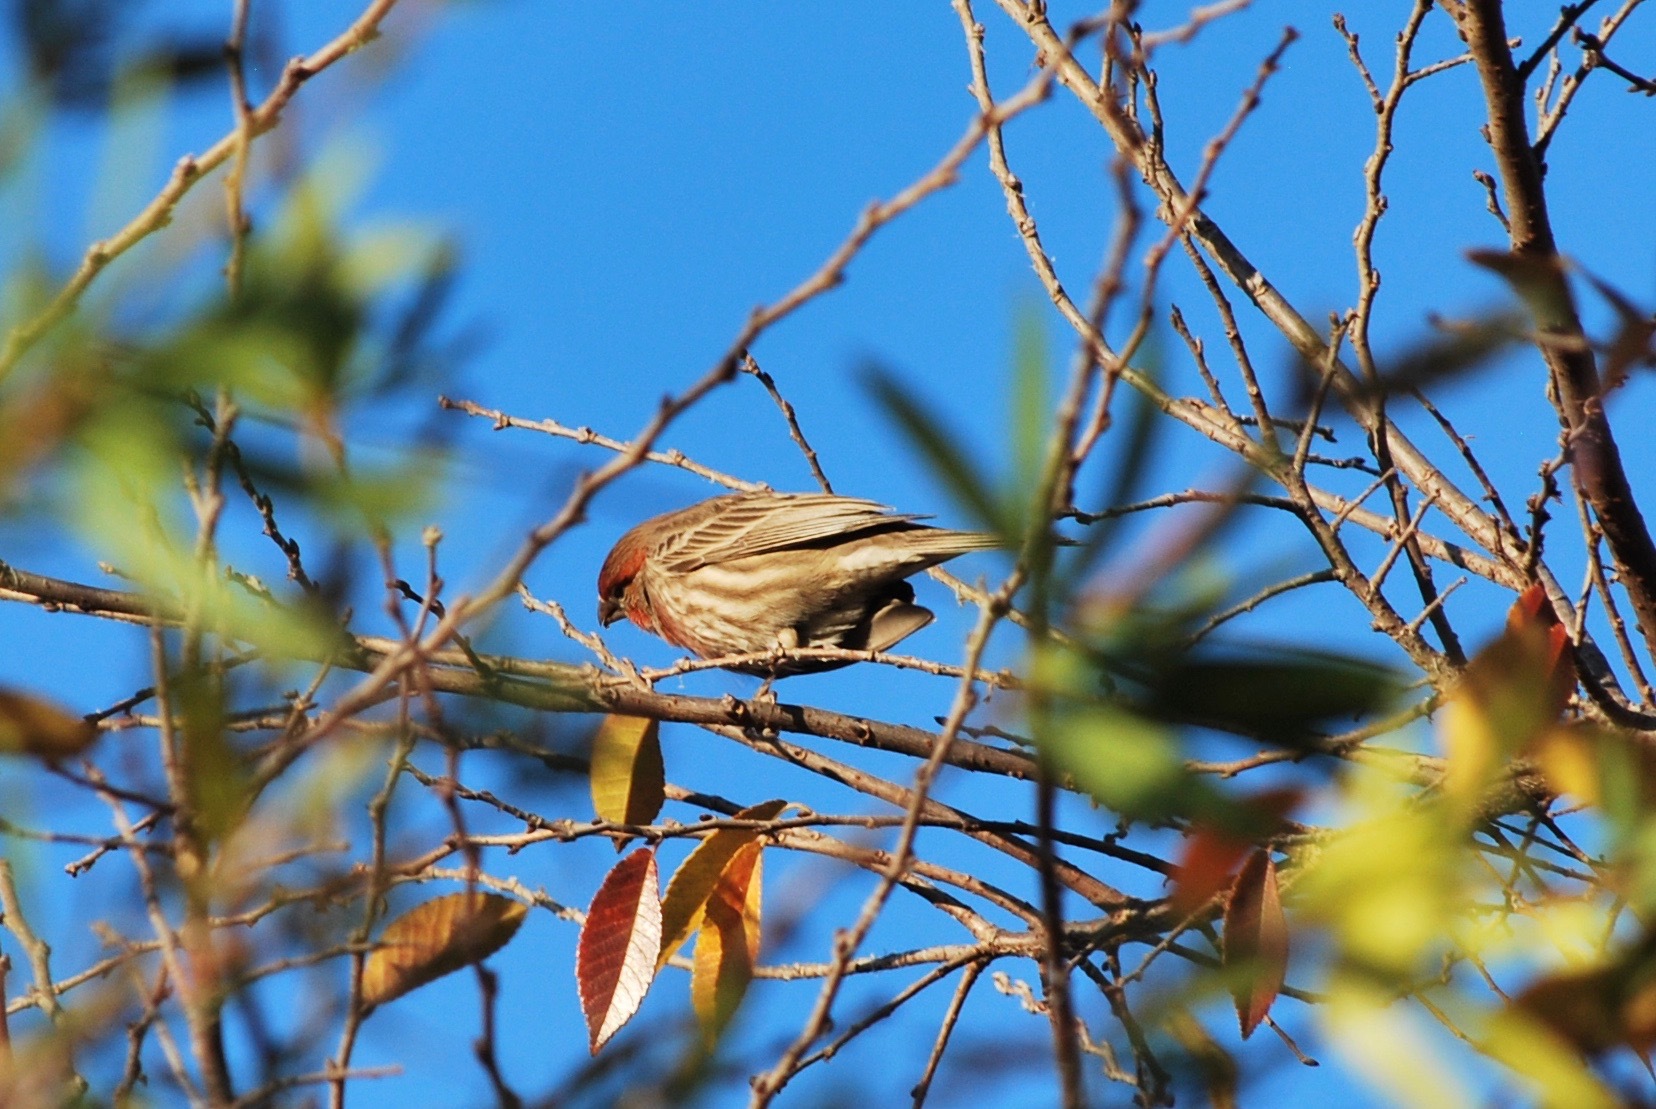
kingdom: Animalia
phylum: Chordata
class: Aves
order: Passeriformes
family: Fringillidae
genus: Haemorhous
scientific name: Haemorhous mexicanus
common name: House finch
